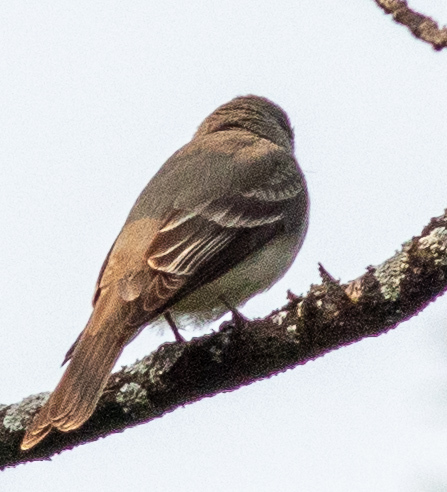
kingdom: Animalia
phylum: Chordata
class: Aves
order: Passeriformes
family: Tyrannidae
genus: Contopus
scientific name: Contopus virens
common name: Eastern wood-pewee
